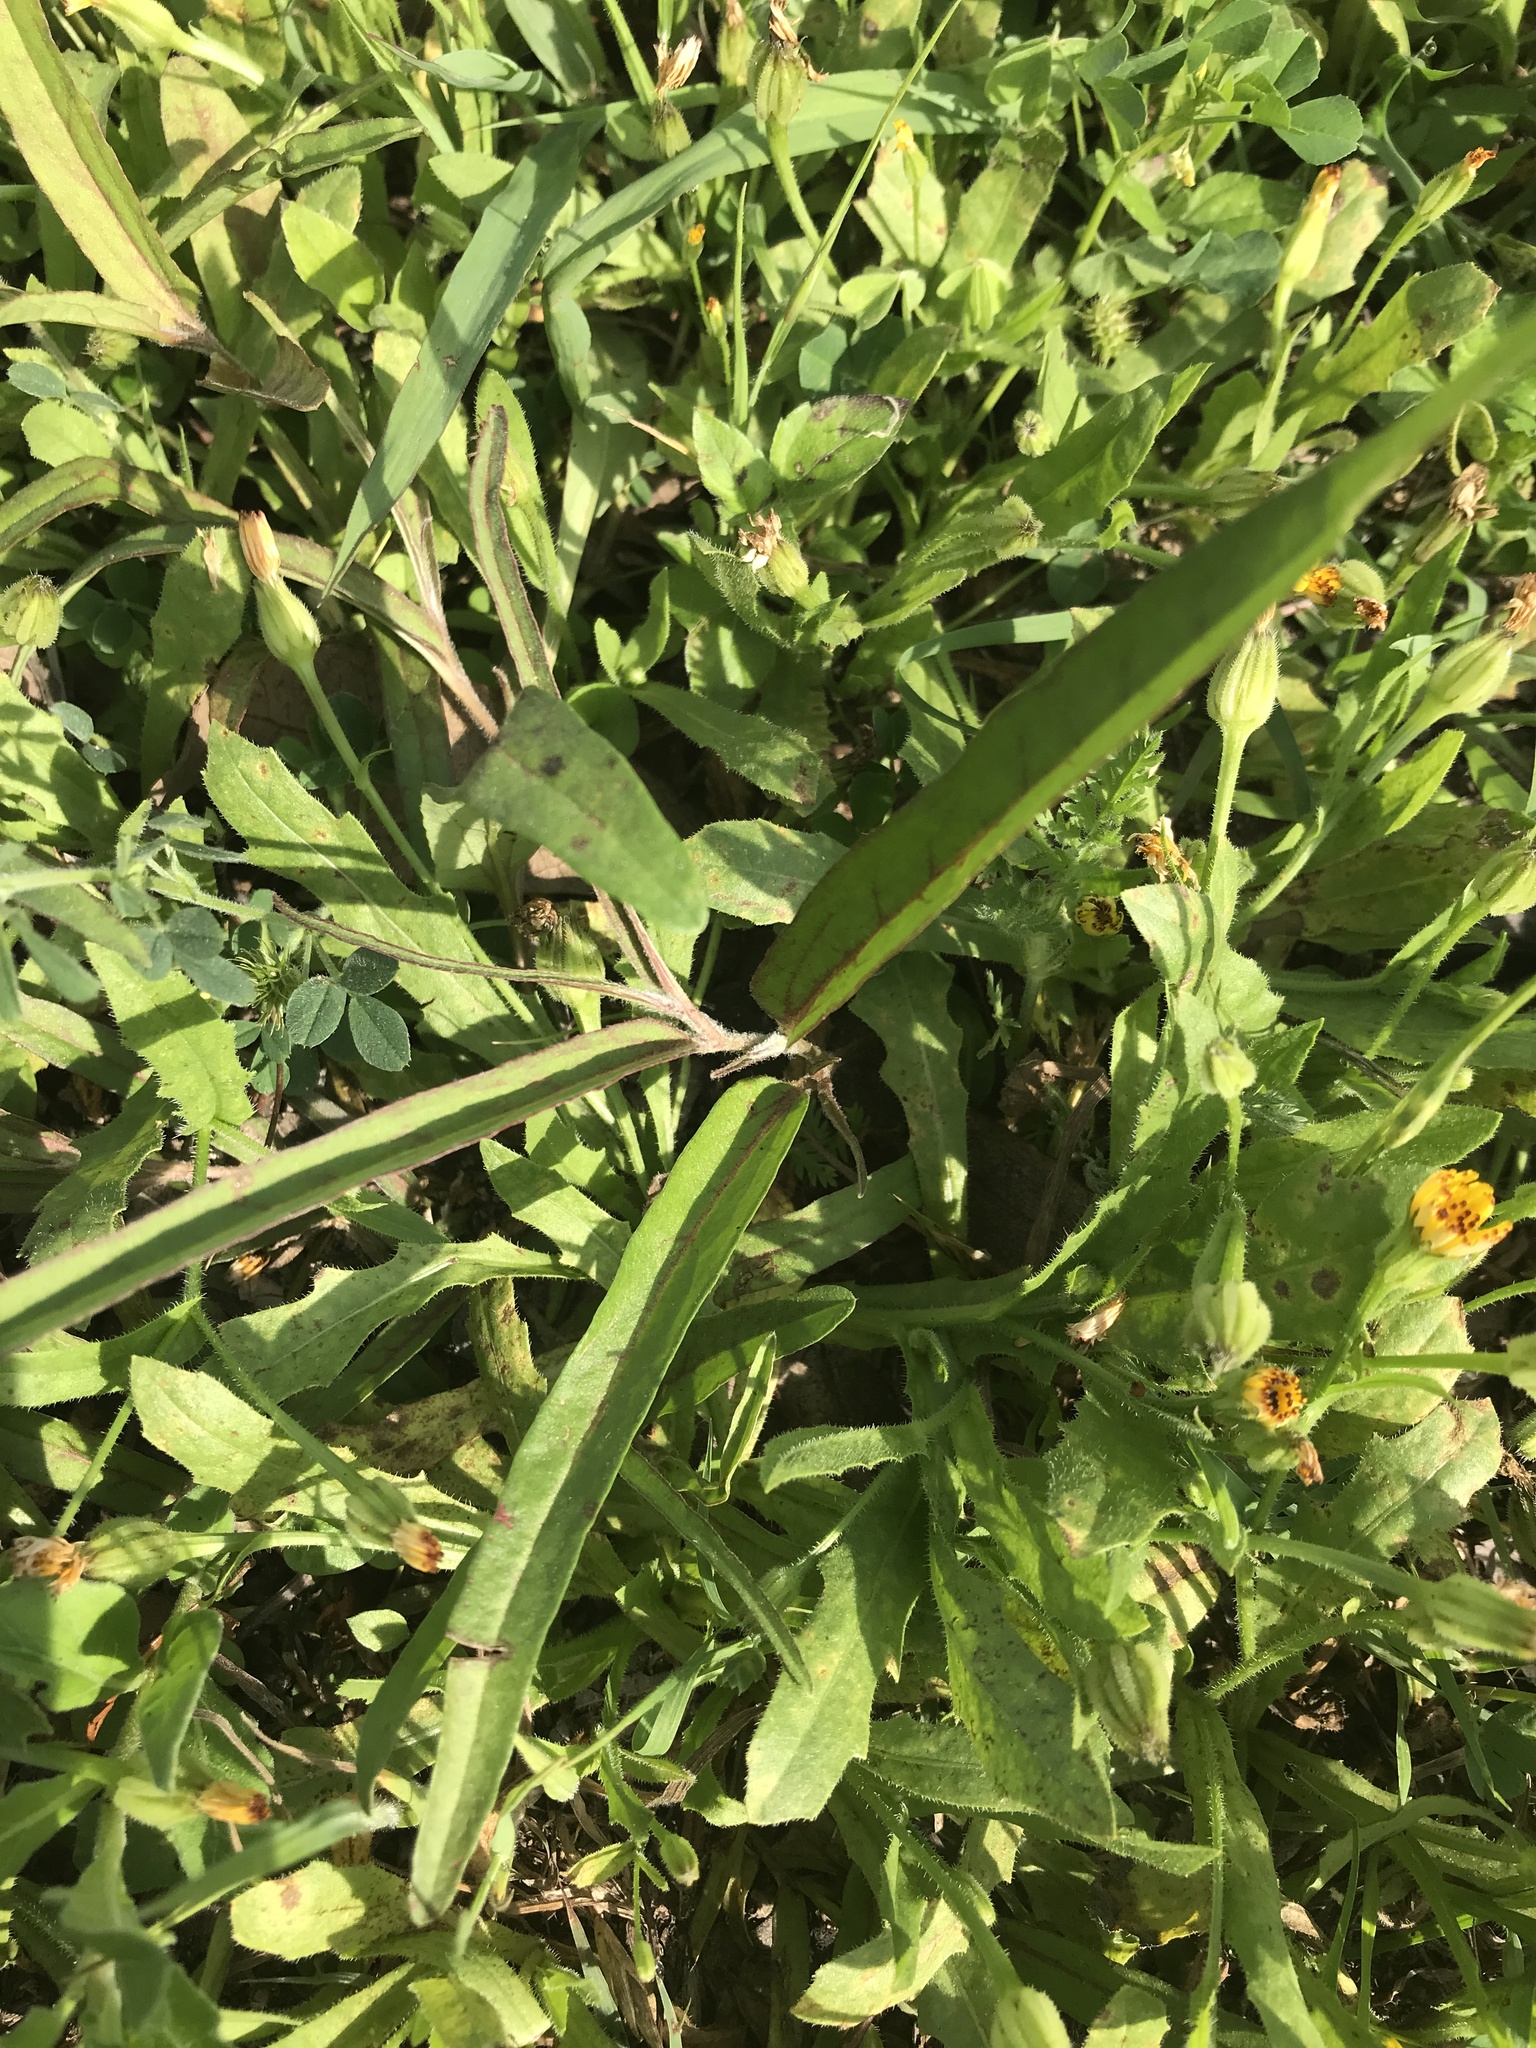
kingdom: Plantae
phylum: Tracheophyta
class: Magnoliopsida
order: Piperales
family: Aristolochiaceae
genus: Aristolochia
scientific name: Aristolochia erecta
